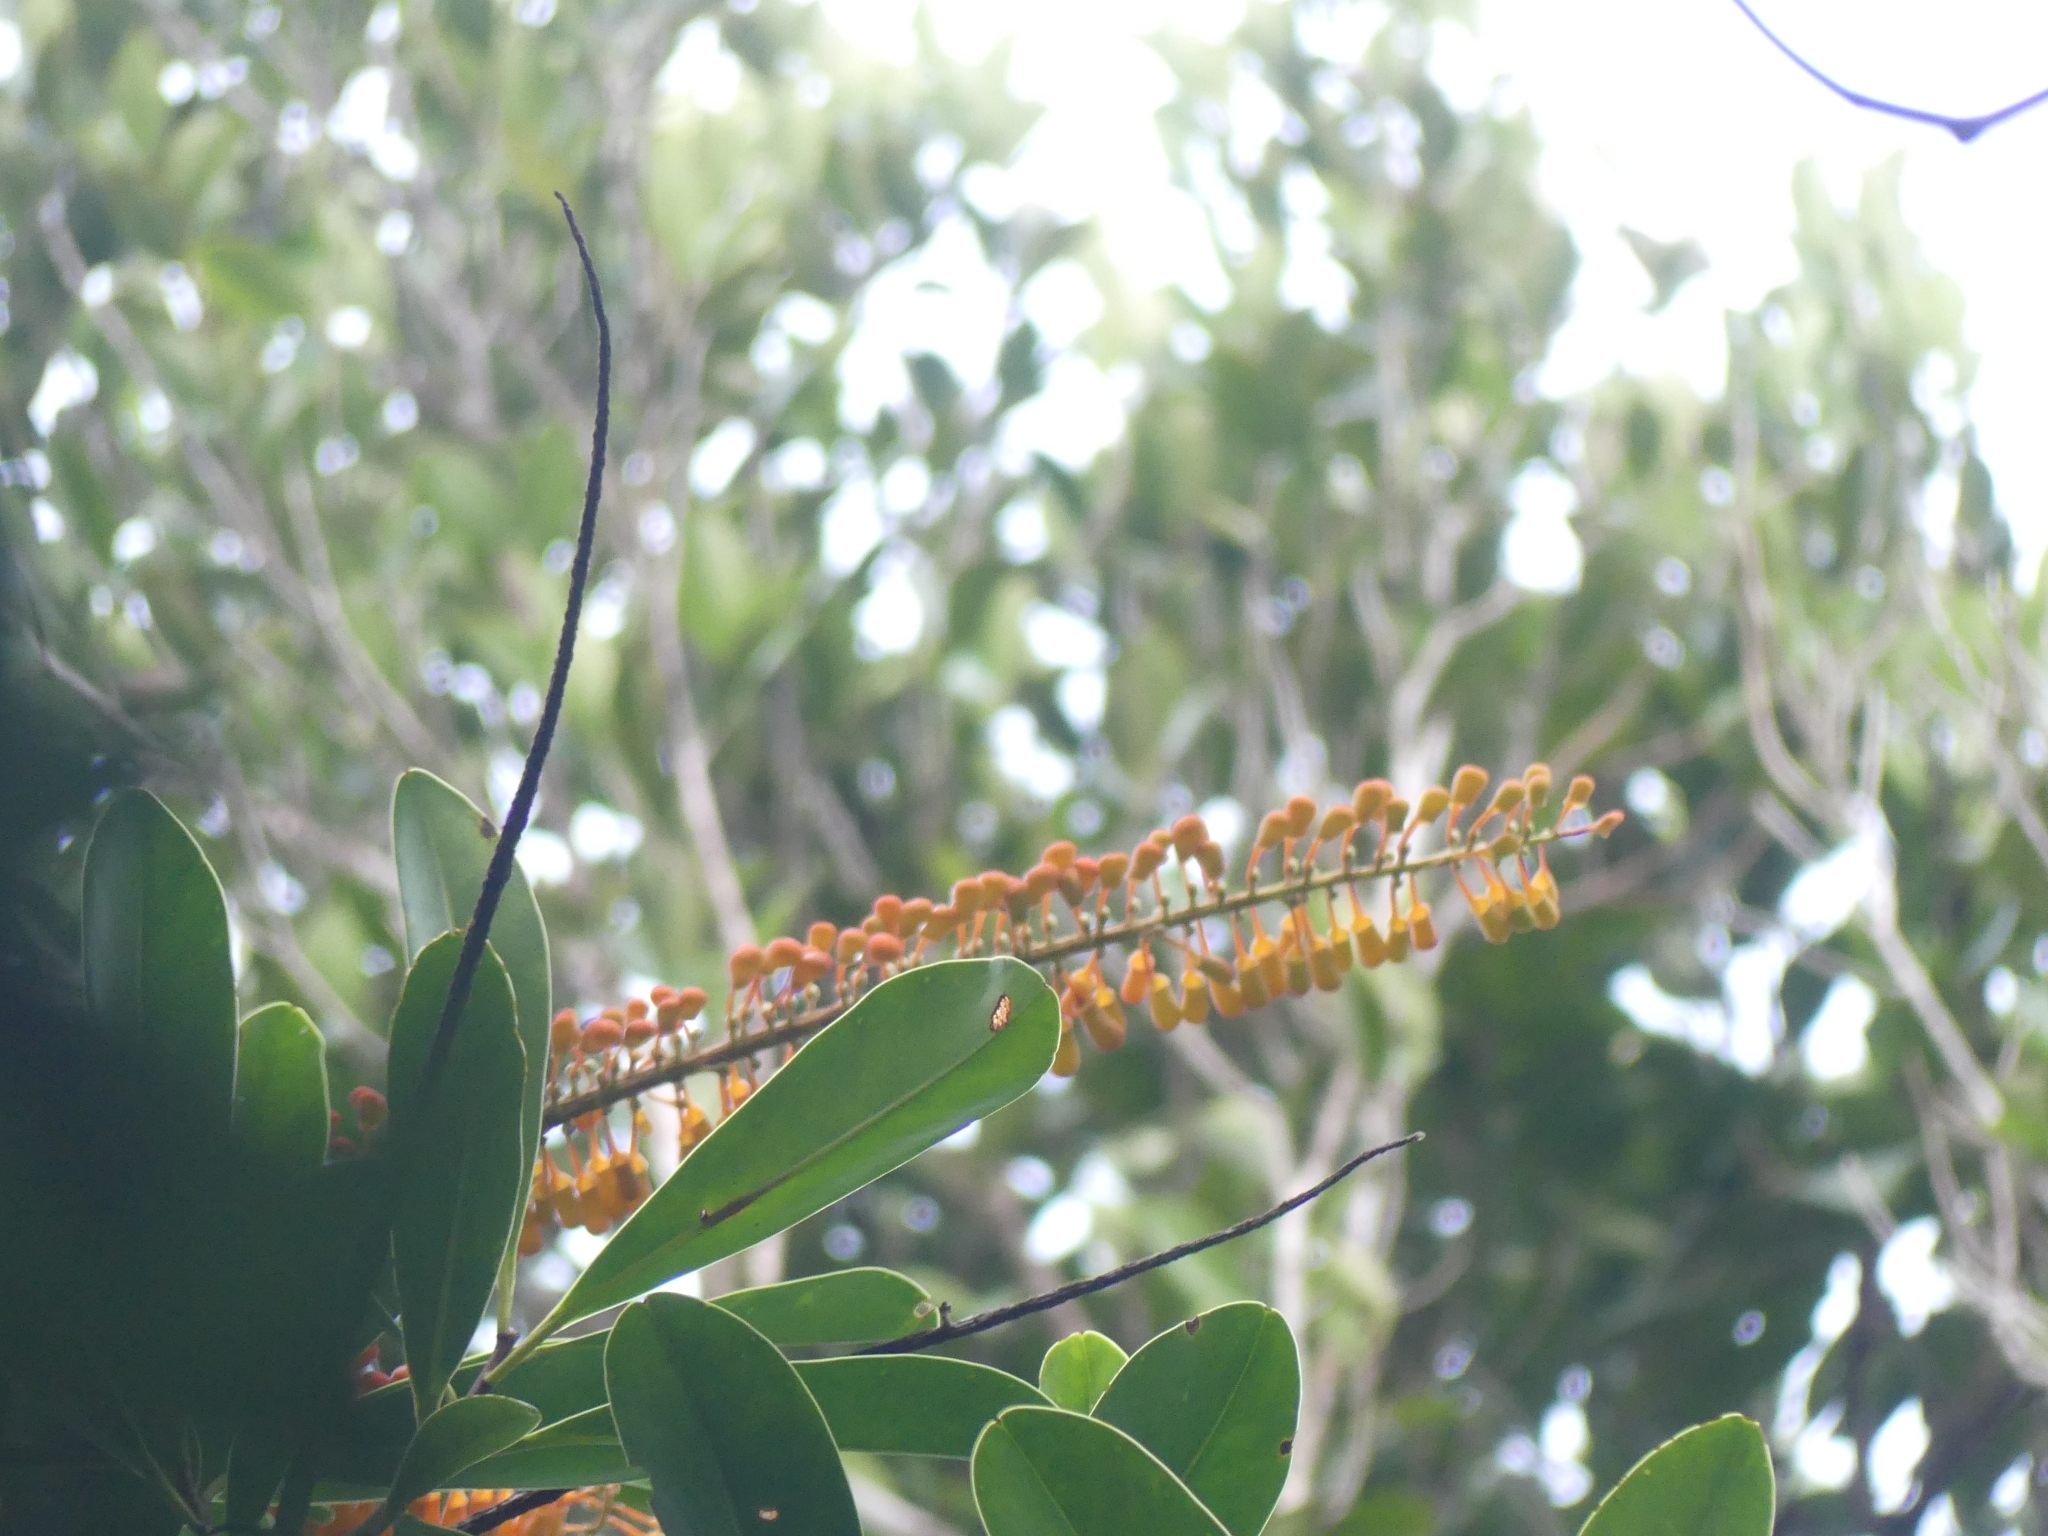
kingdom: Plantae
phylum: Tracheophyta
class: Magnoliopsida
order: Ericales
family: Marcgraviaceae
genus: Norantea
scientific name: Norantea guianensis
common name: Red hot poker vine
